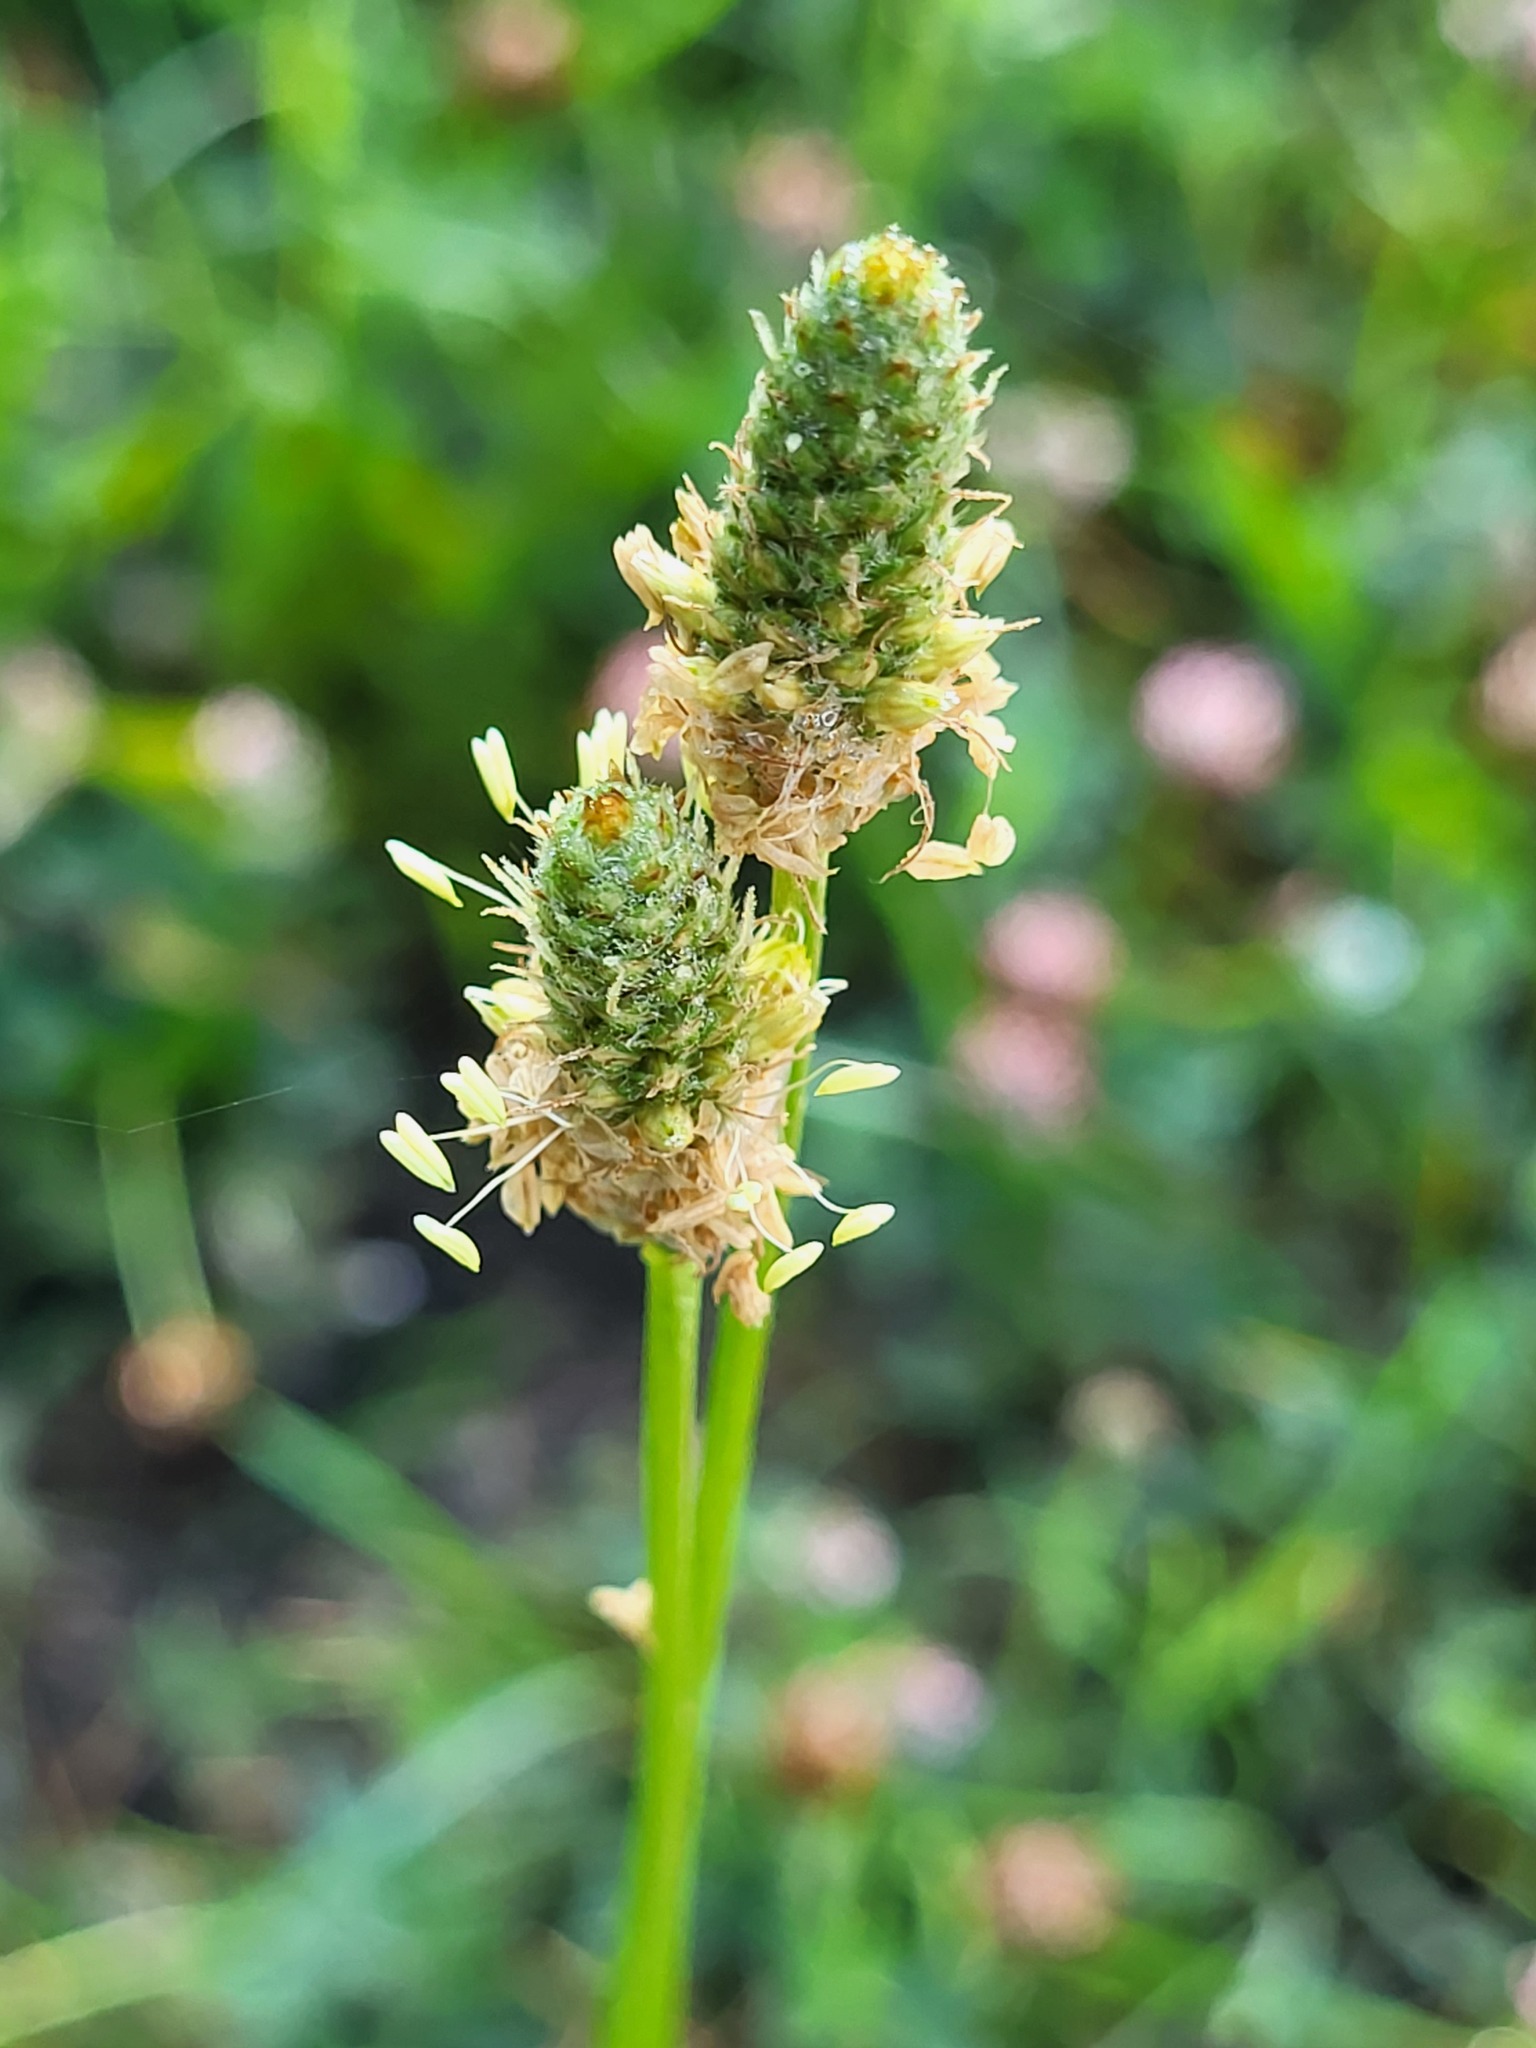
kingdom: Plantae
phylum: Tracheophyta
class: Magnoliopsida
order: Lamiales
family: Plantaginaceae
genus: Plantago
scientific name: Plantago lanceolata
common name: Ribwort plantain
